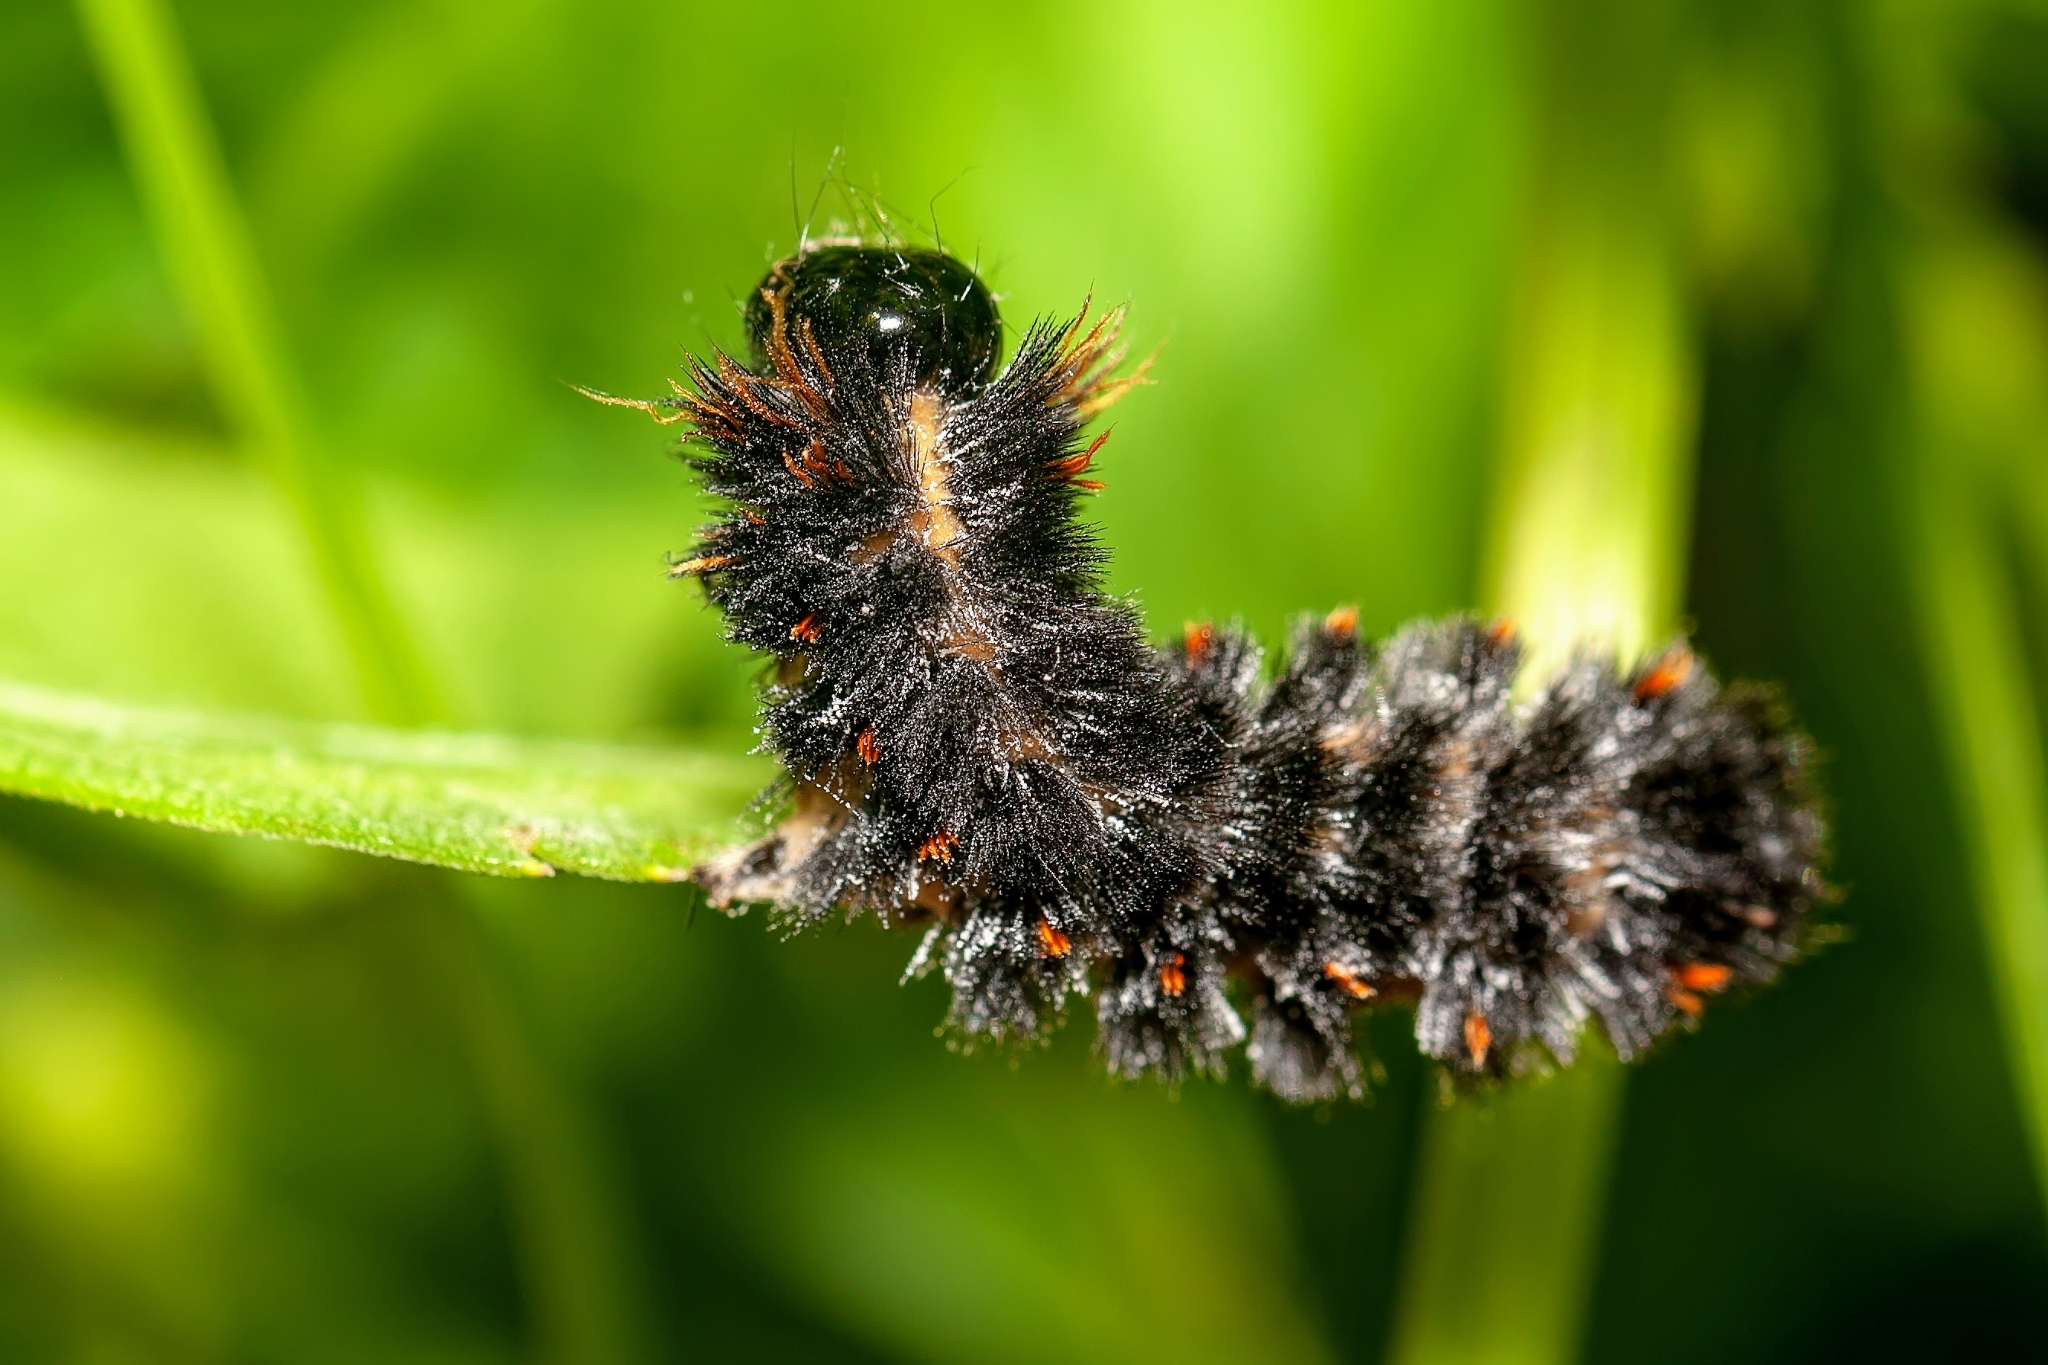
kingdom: Animalia
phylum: Arthropoda
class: Insecta
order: Lepidoptera
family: Erebidae
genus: Spilosoma
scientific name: Spilosoma congrua
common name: Agreeable tiger moth
